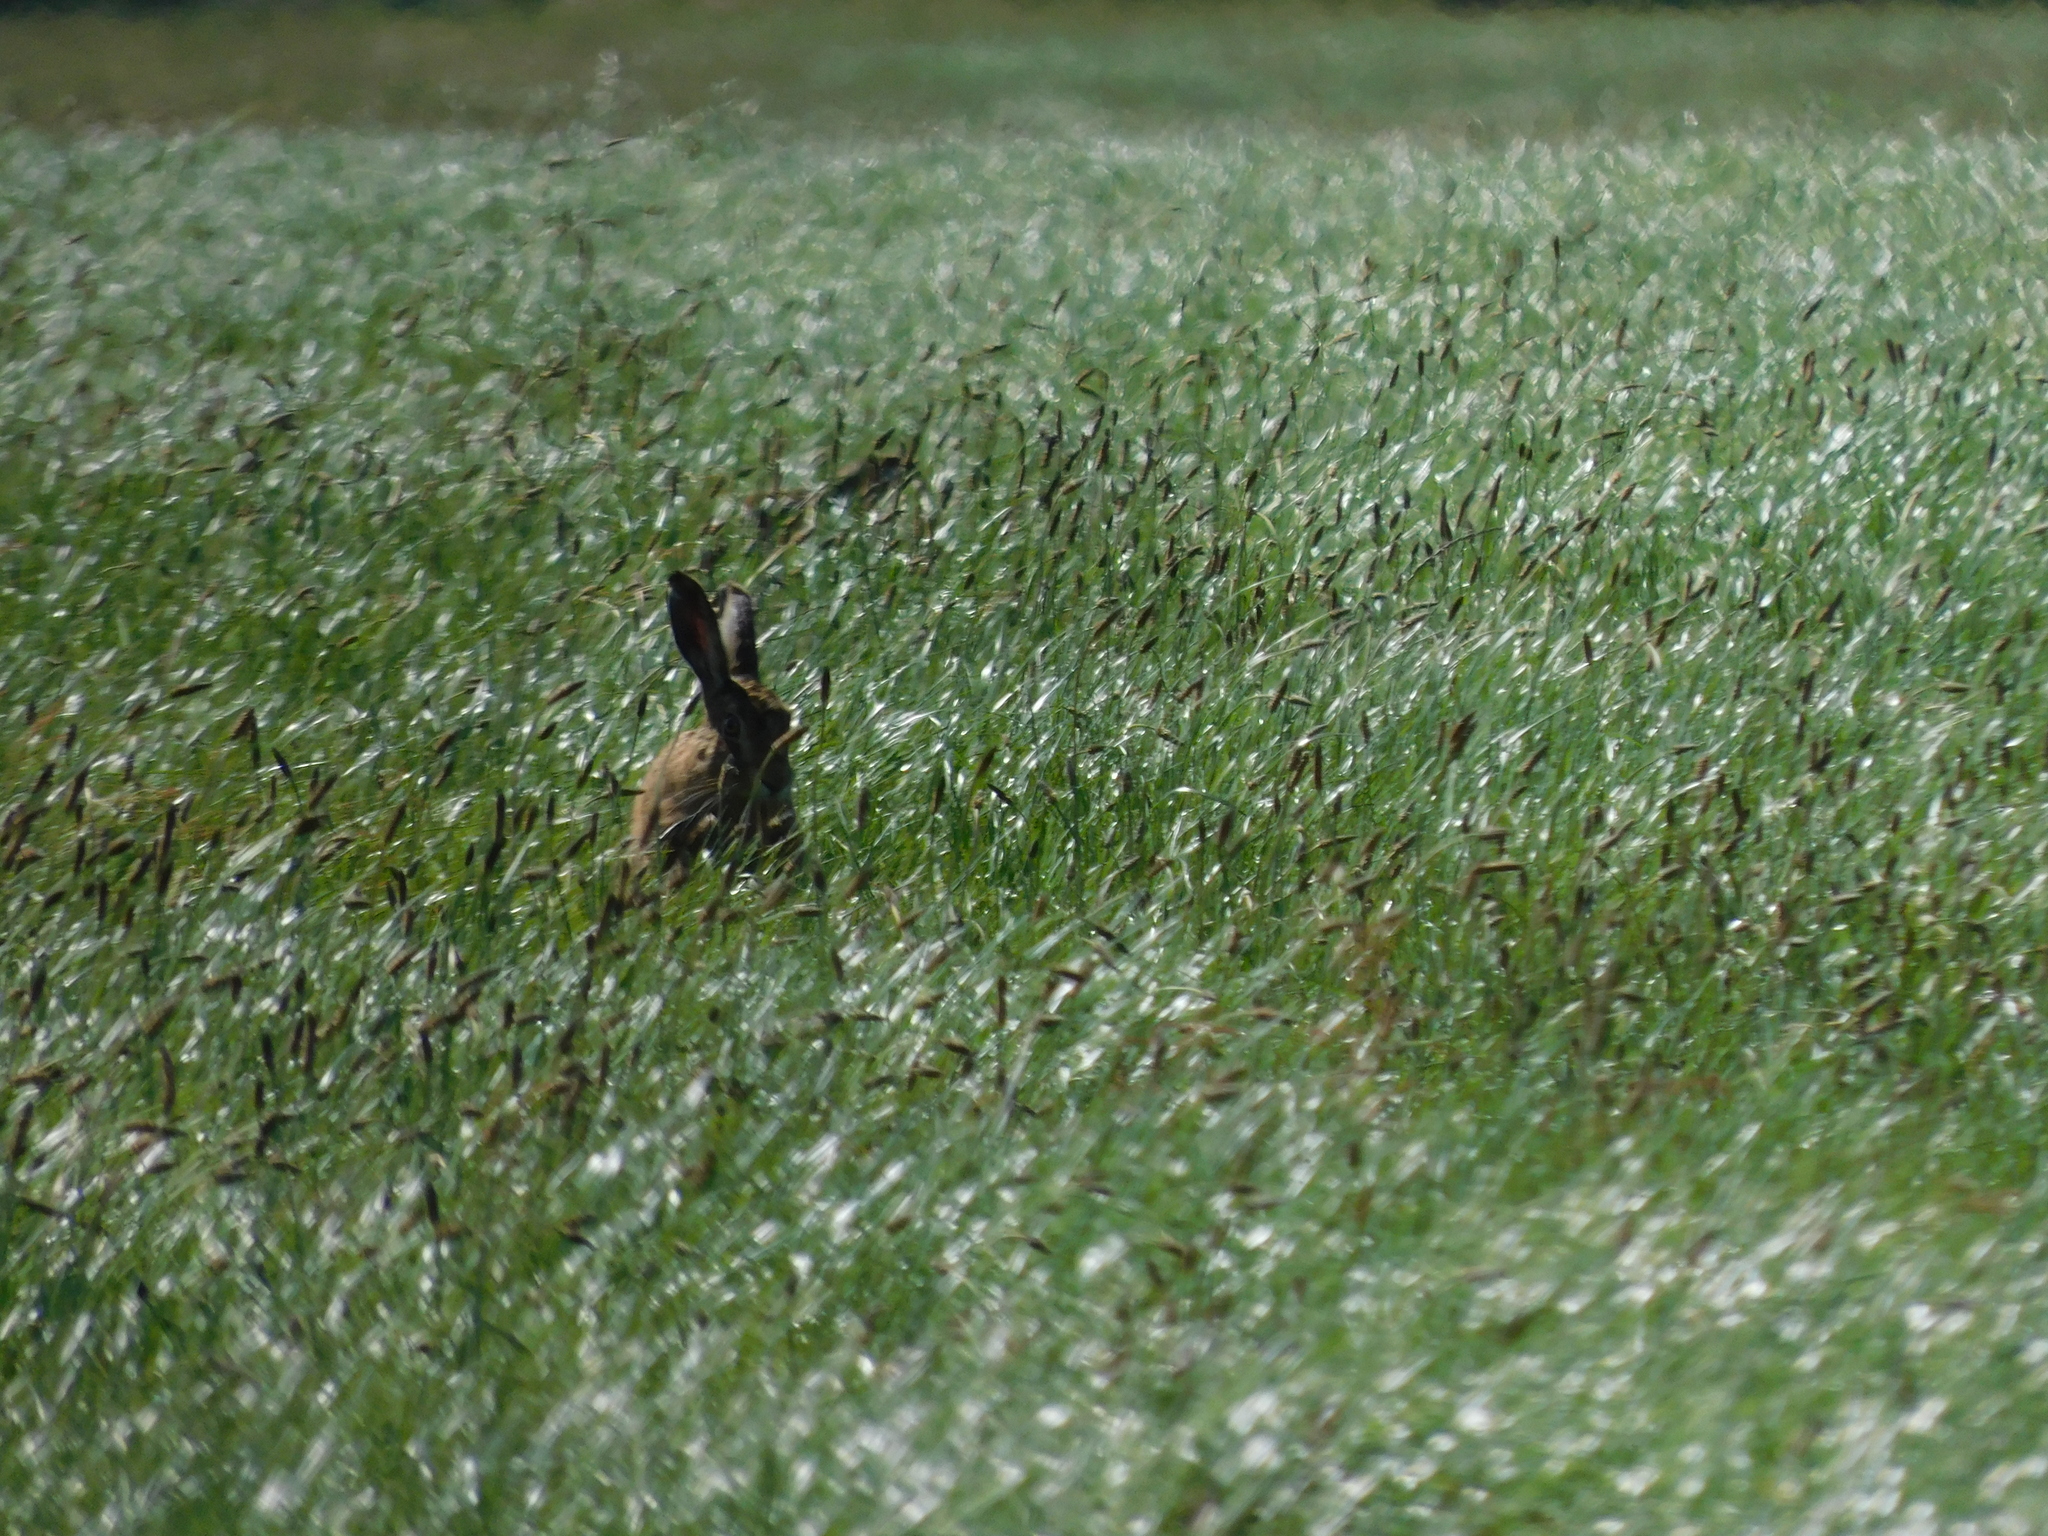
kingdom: Animalia
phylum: Chordata
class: Mammalia
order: Lagomorpha
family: Leporidae
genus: Lepus
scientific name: Lepus europaeus
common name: European hare
